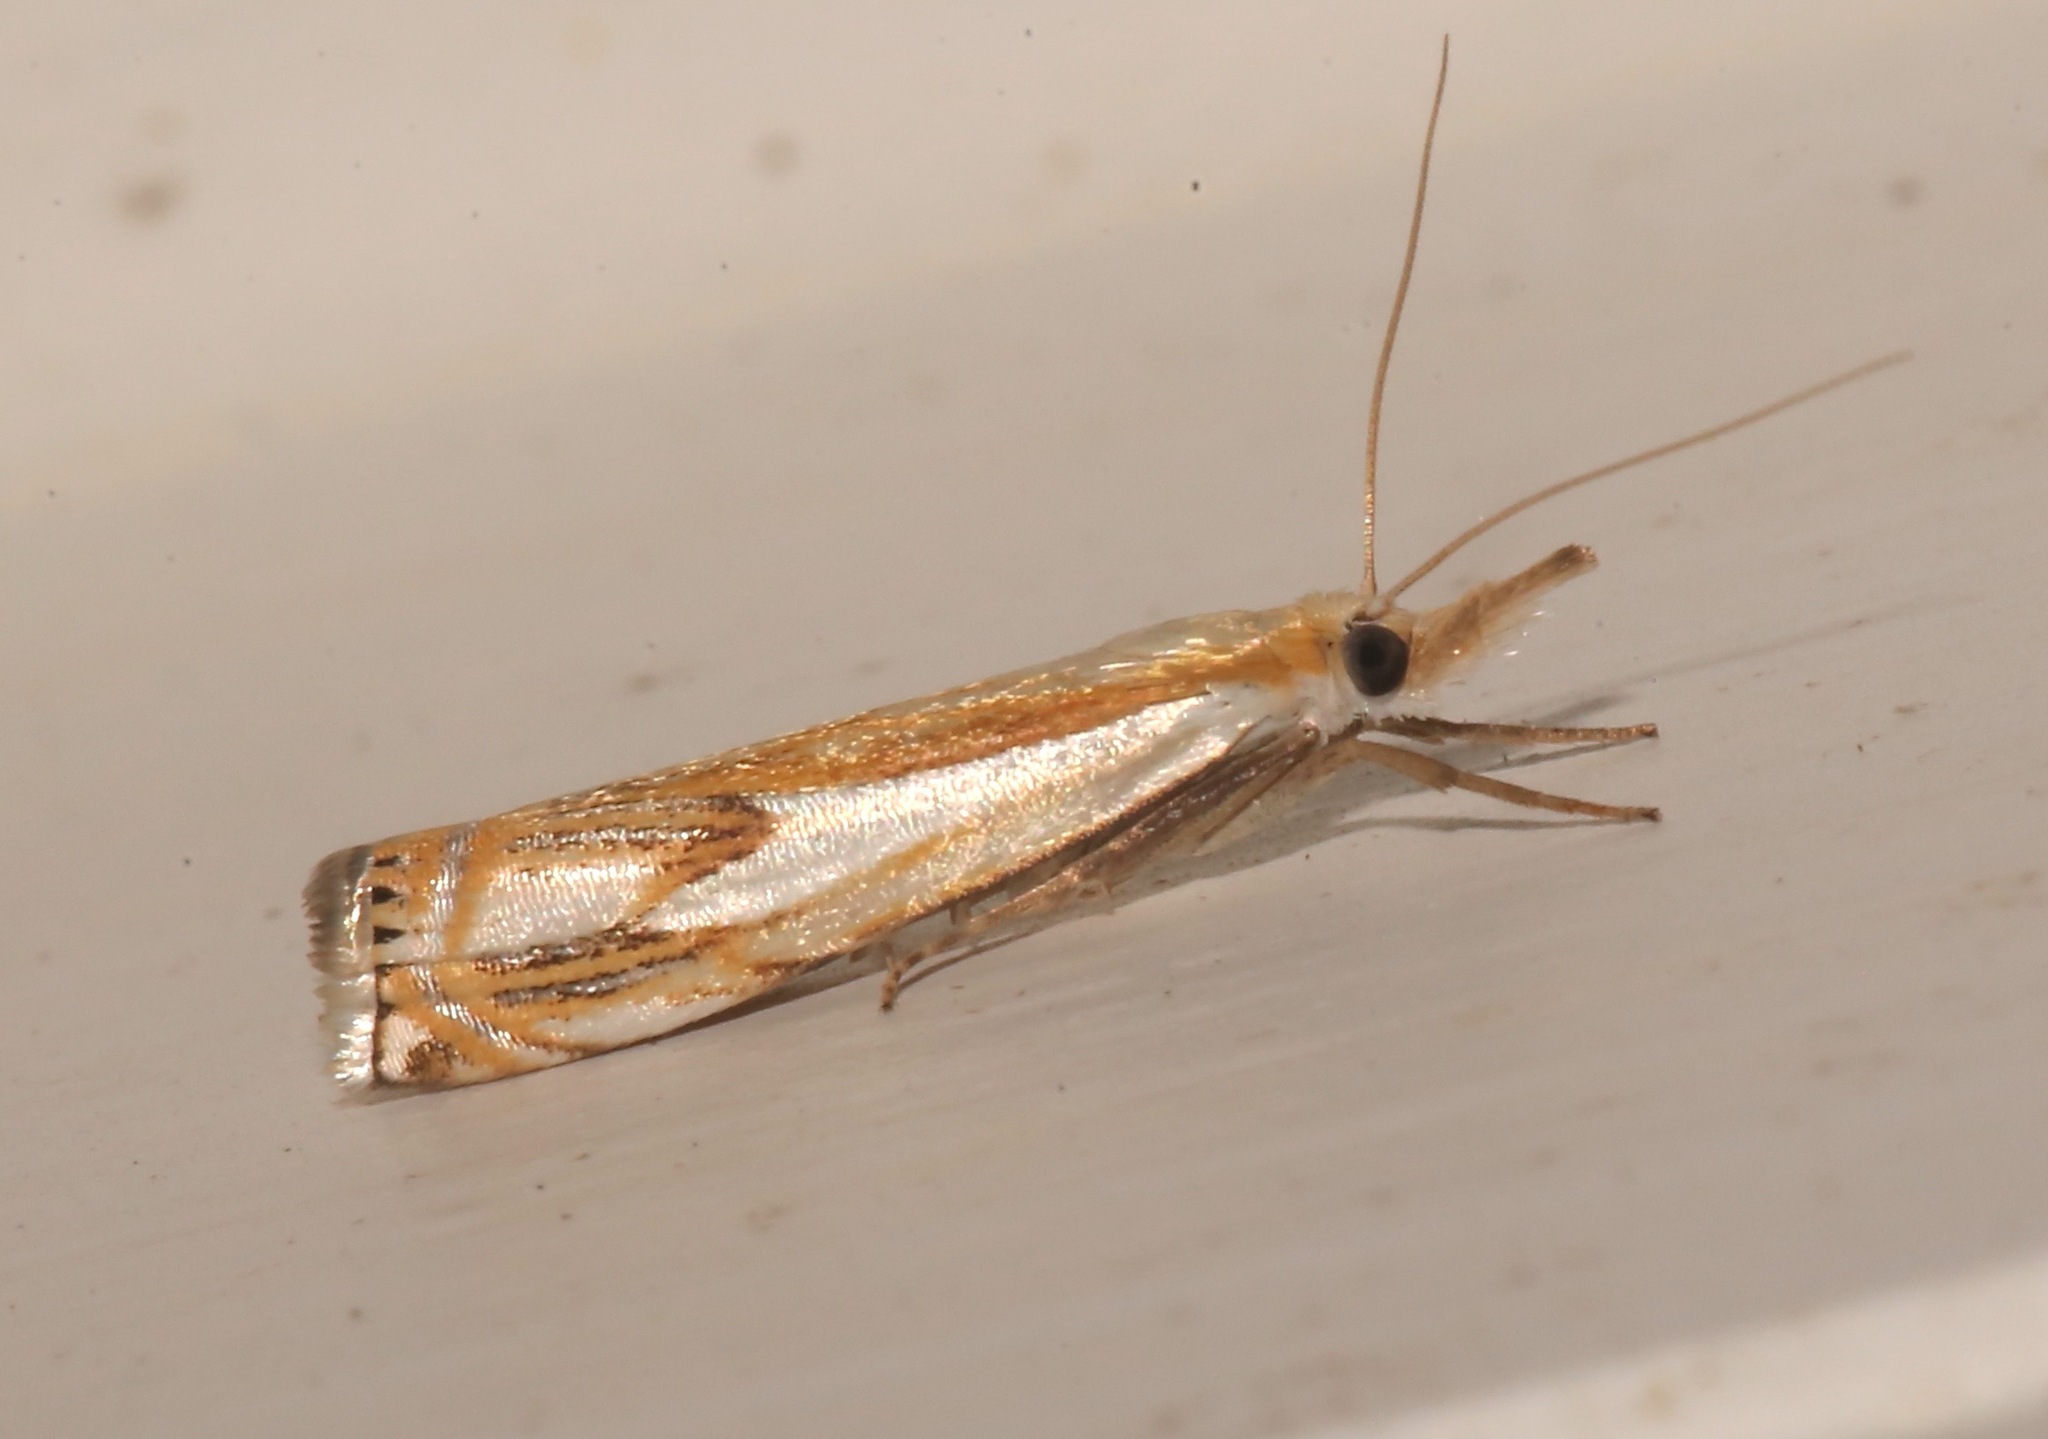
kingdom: Animalia
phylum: Arthropoda
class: Insecta
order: Lepidoptera
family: Crambidae
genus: Crambus
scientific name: Crambus agitatellus
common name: Double-banded grass-veneer
